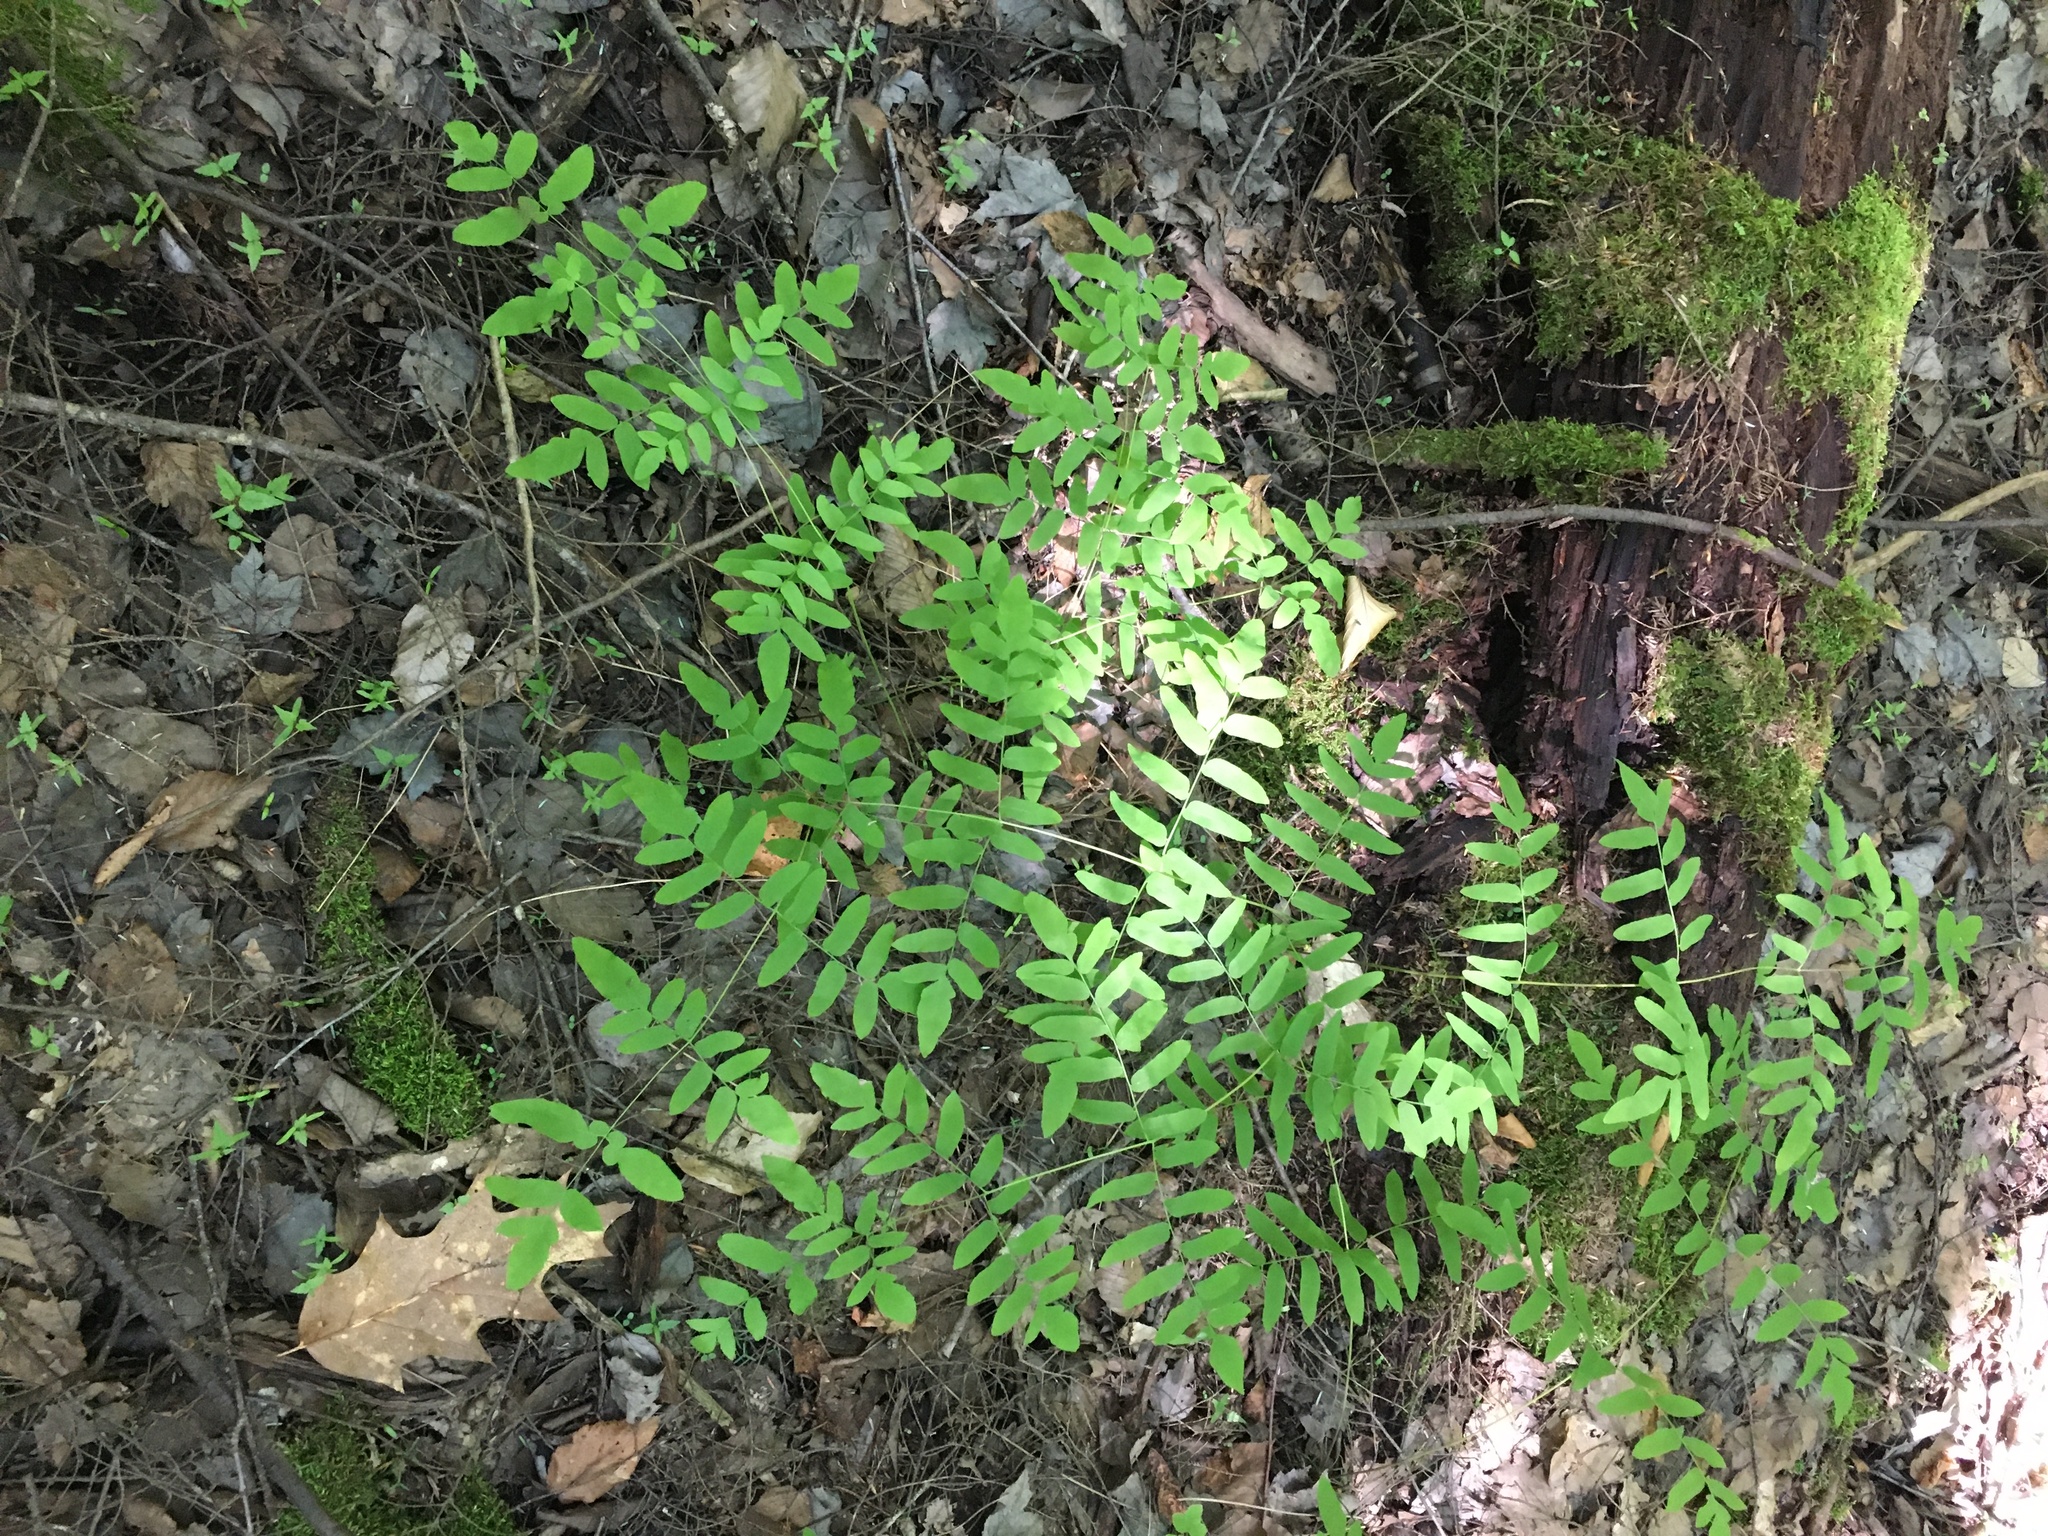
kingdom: Plantae
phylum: Tracheophyta
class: Polypodiopsida
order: Osmundales
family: Osmundaceae
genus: Osmunda
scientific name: Osmunda spectabilis
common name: American royal fern
